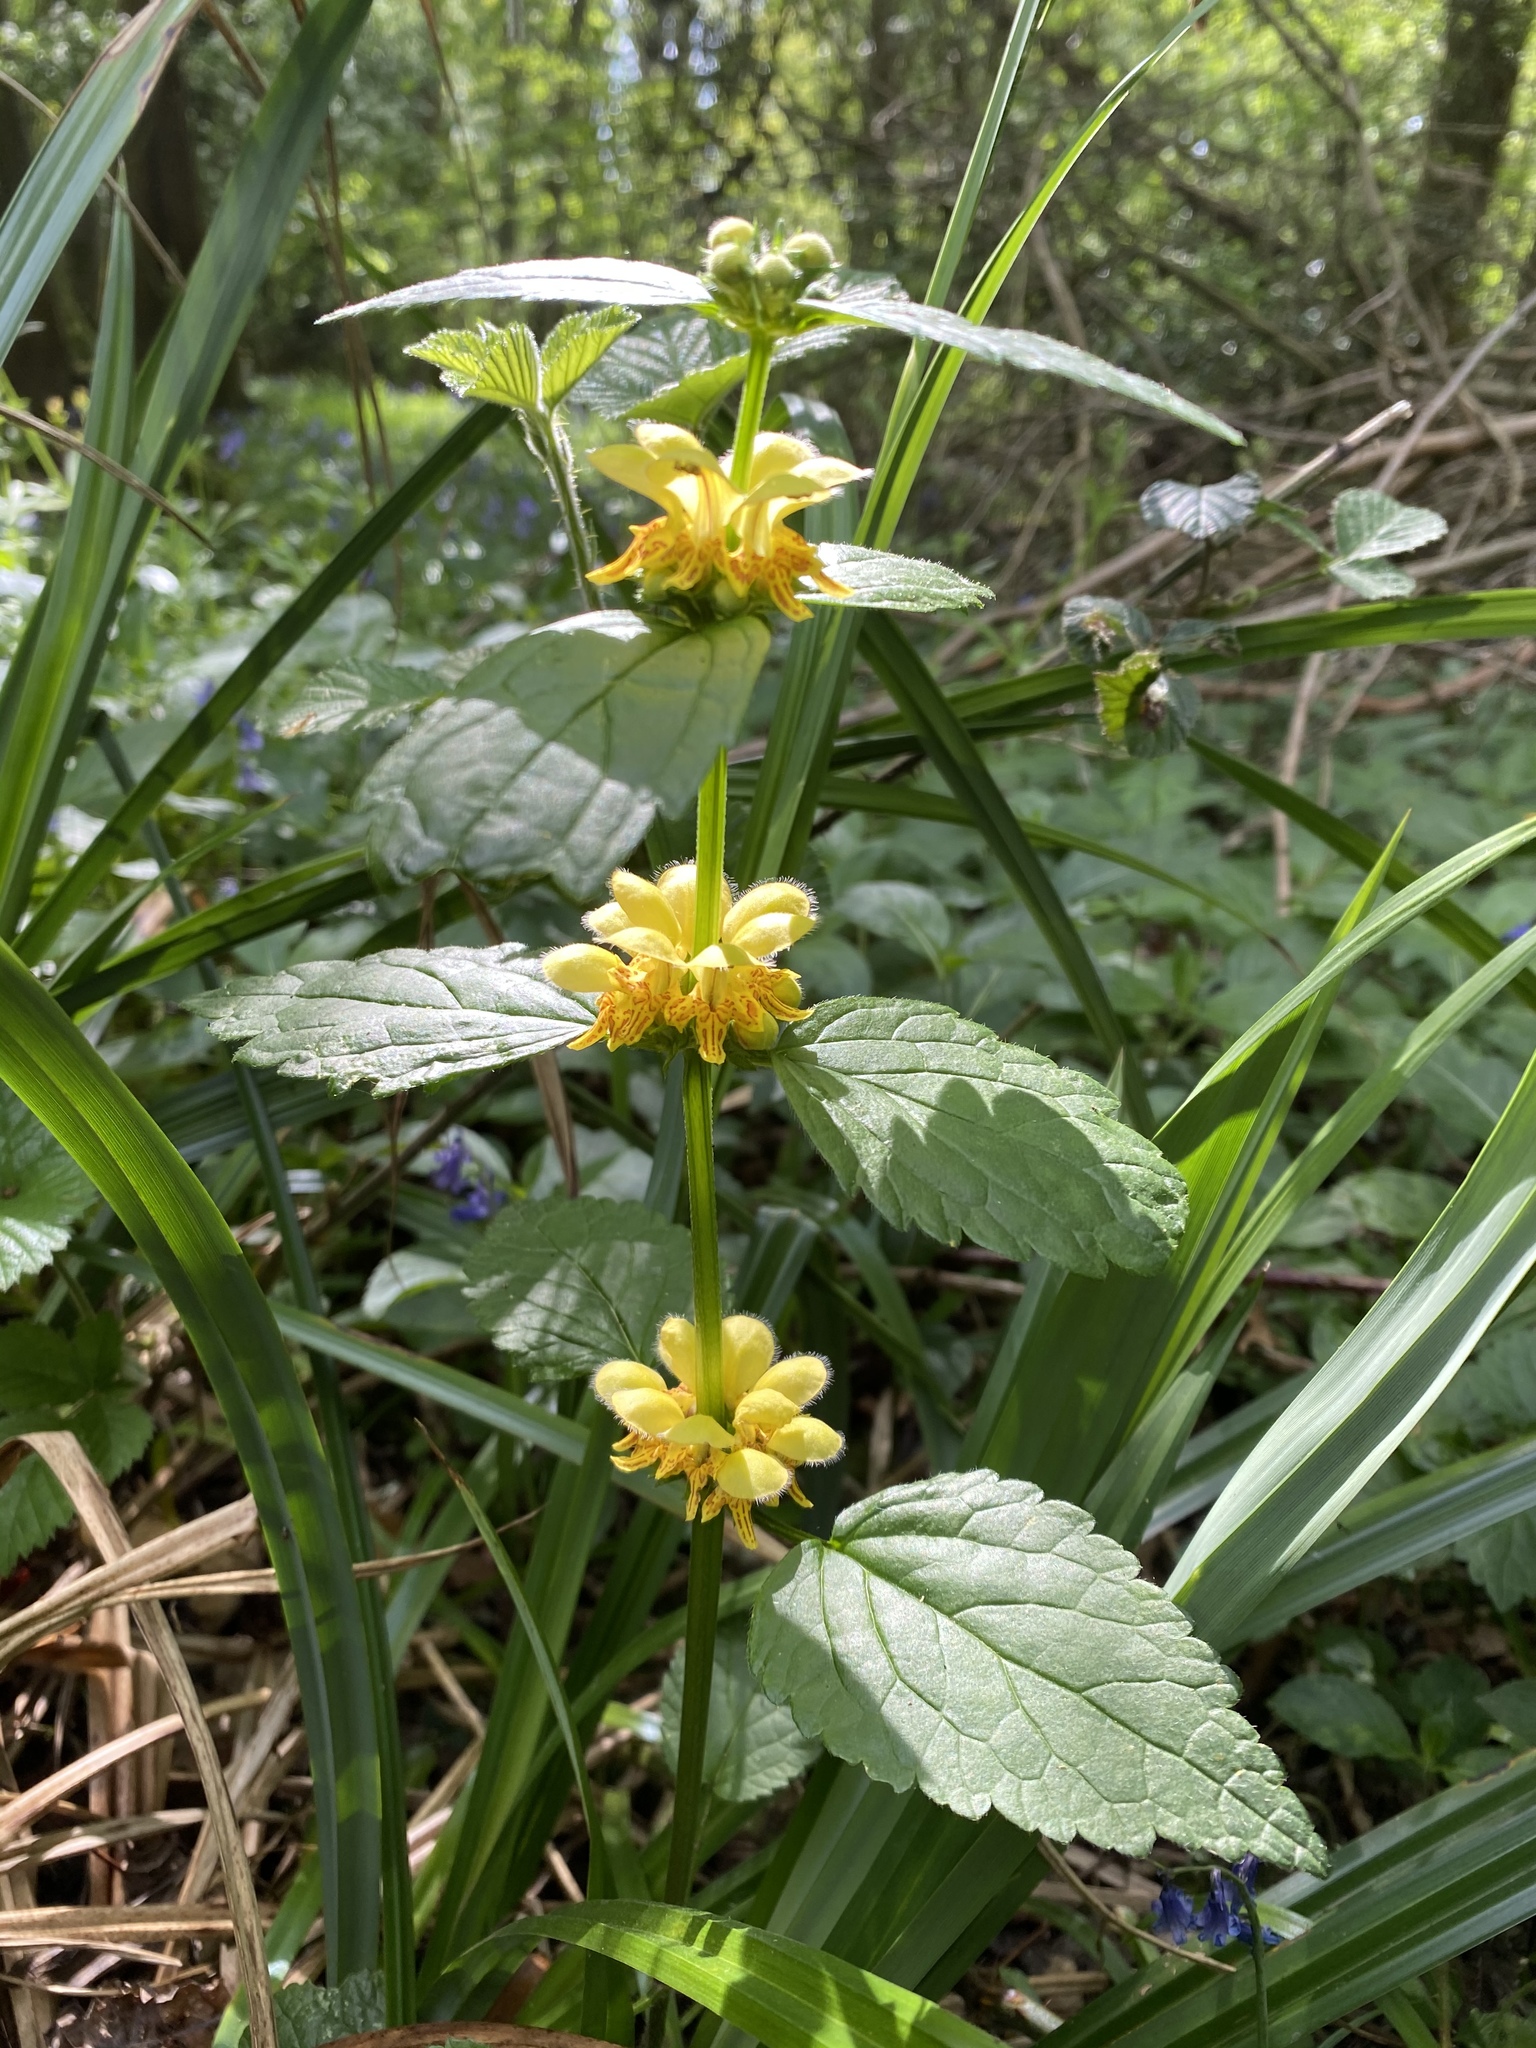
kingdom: Plantae
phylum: Tracheophyta
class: Magnoliopsida
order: Lamiales
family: Lamiaceae
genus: Lamium
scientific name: Lamium galeobdolon
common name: Yellow archangel
